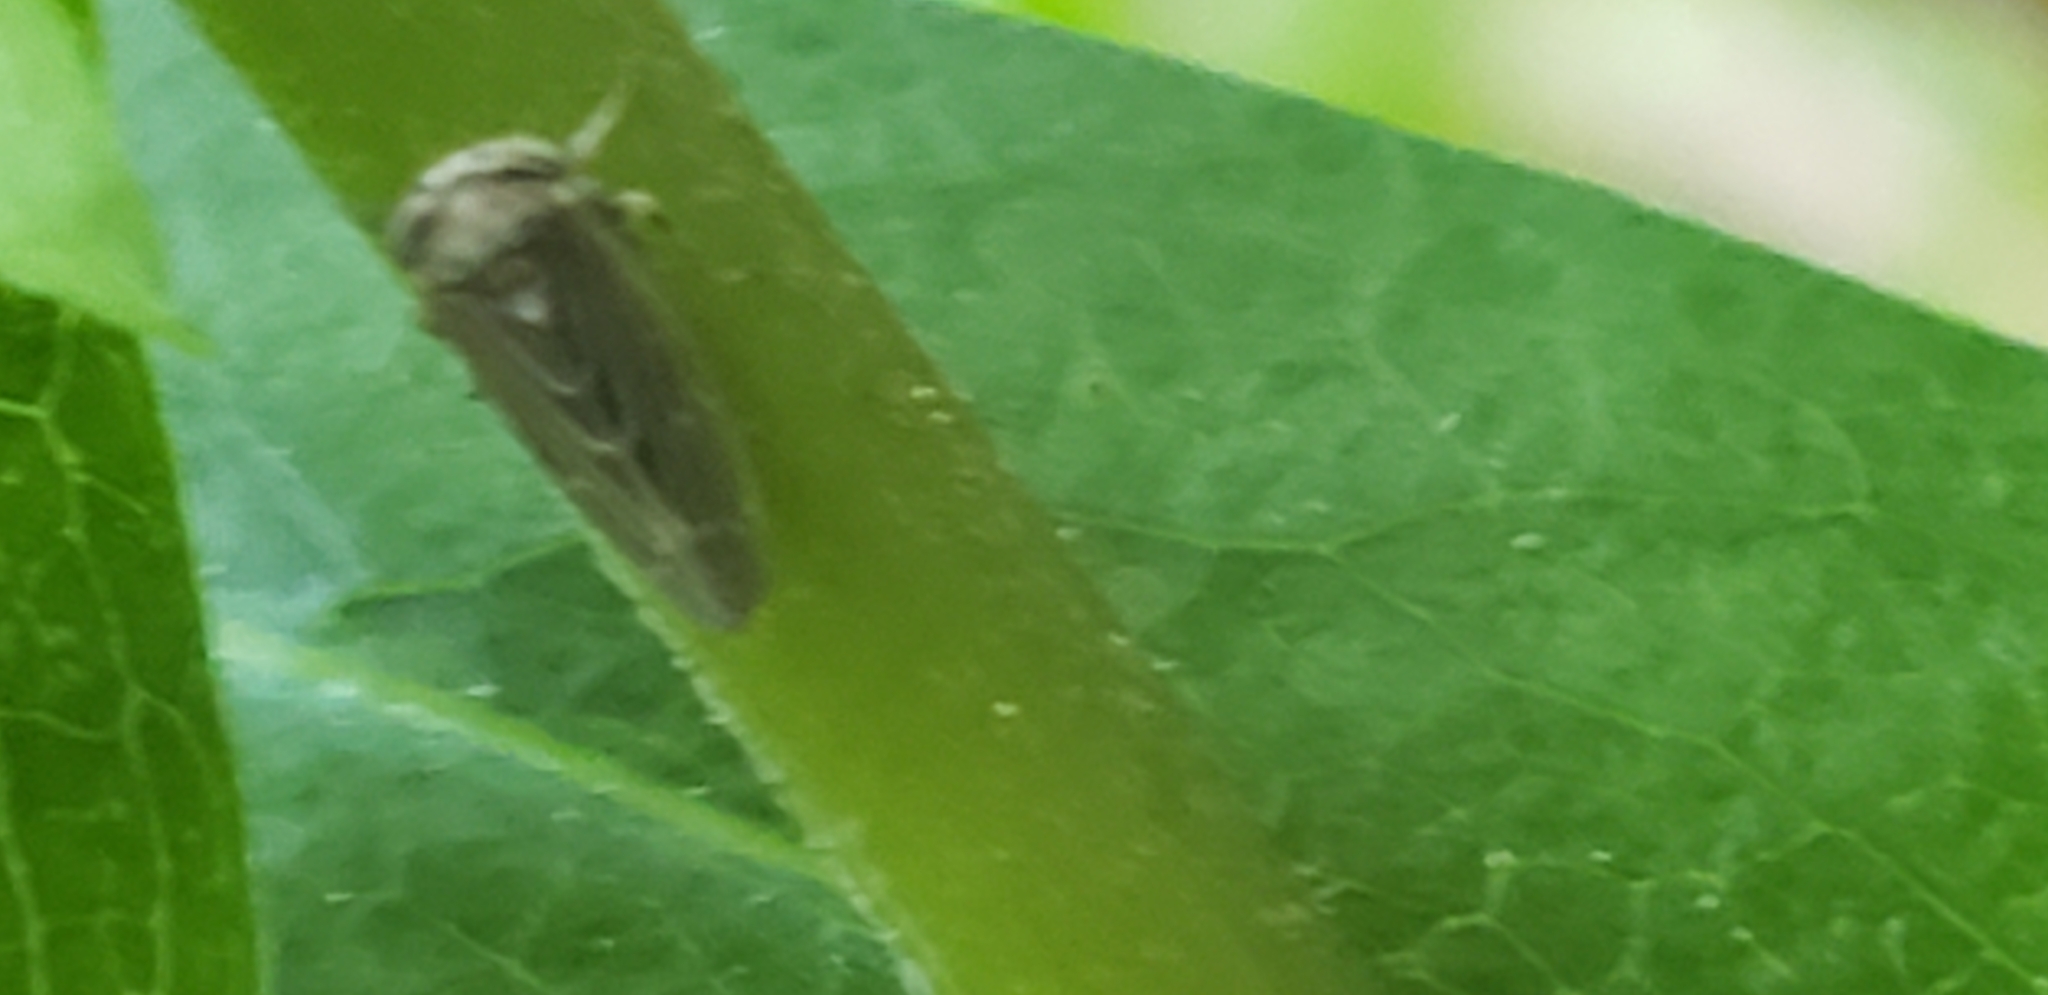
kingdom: Animalia
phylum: Arthropoda
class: Insecta
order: Hemiptera
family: Cicadellidae
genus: Agalliota
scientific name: Agalliota quadripunctata
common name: The four-spotted clover leafhopper
